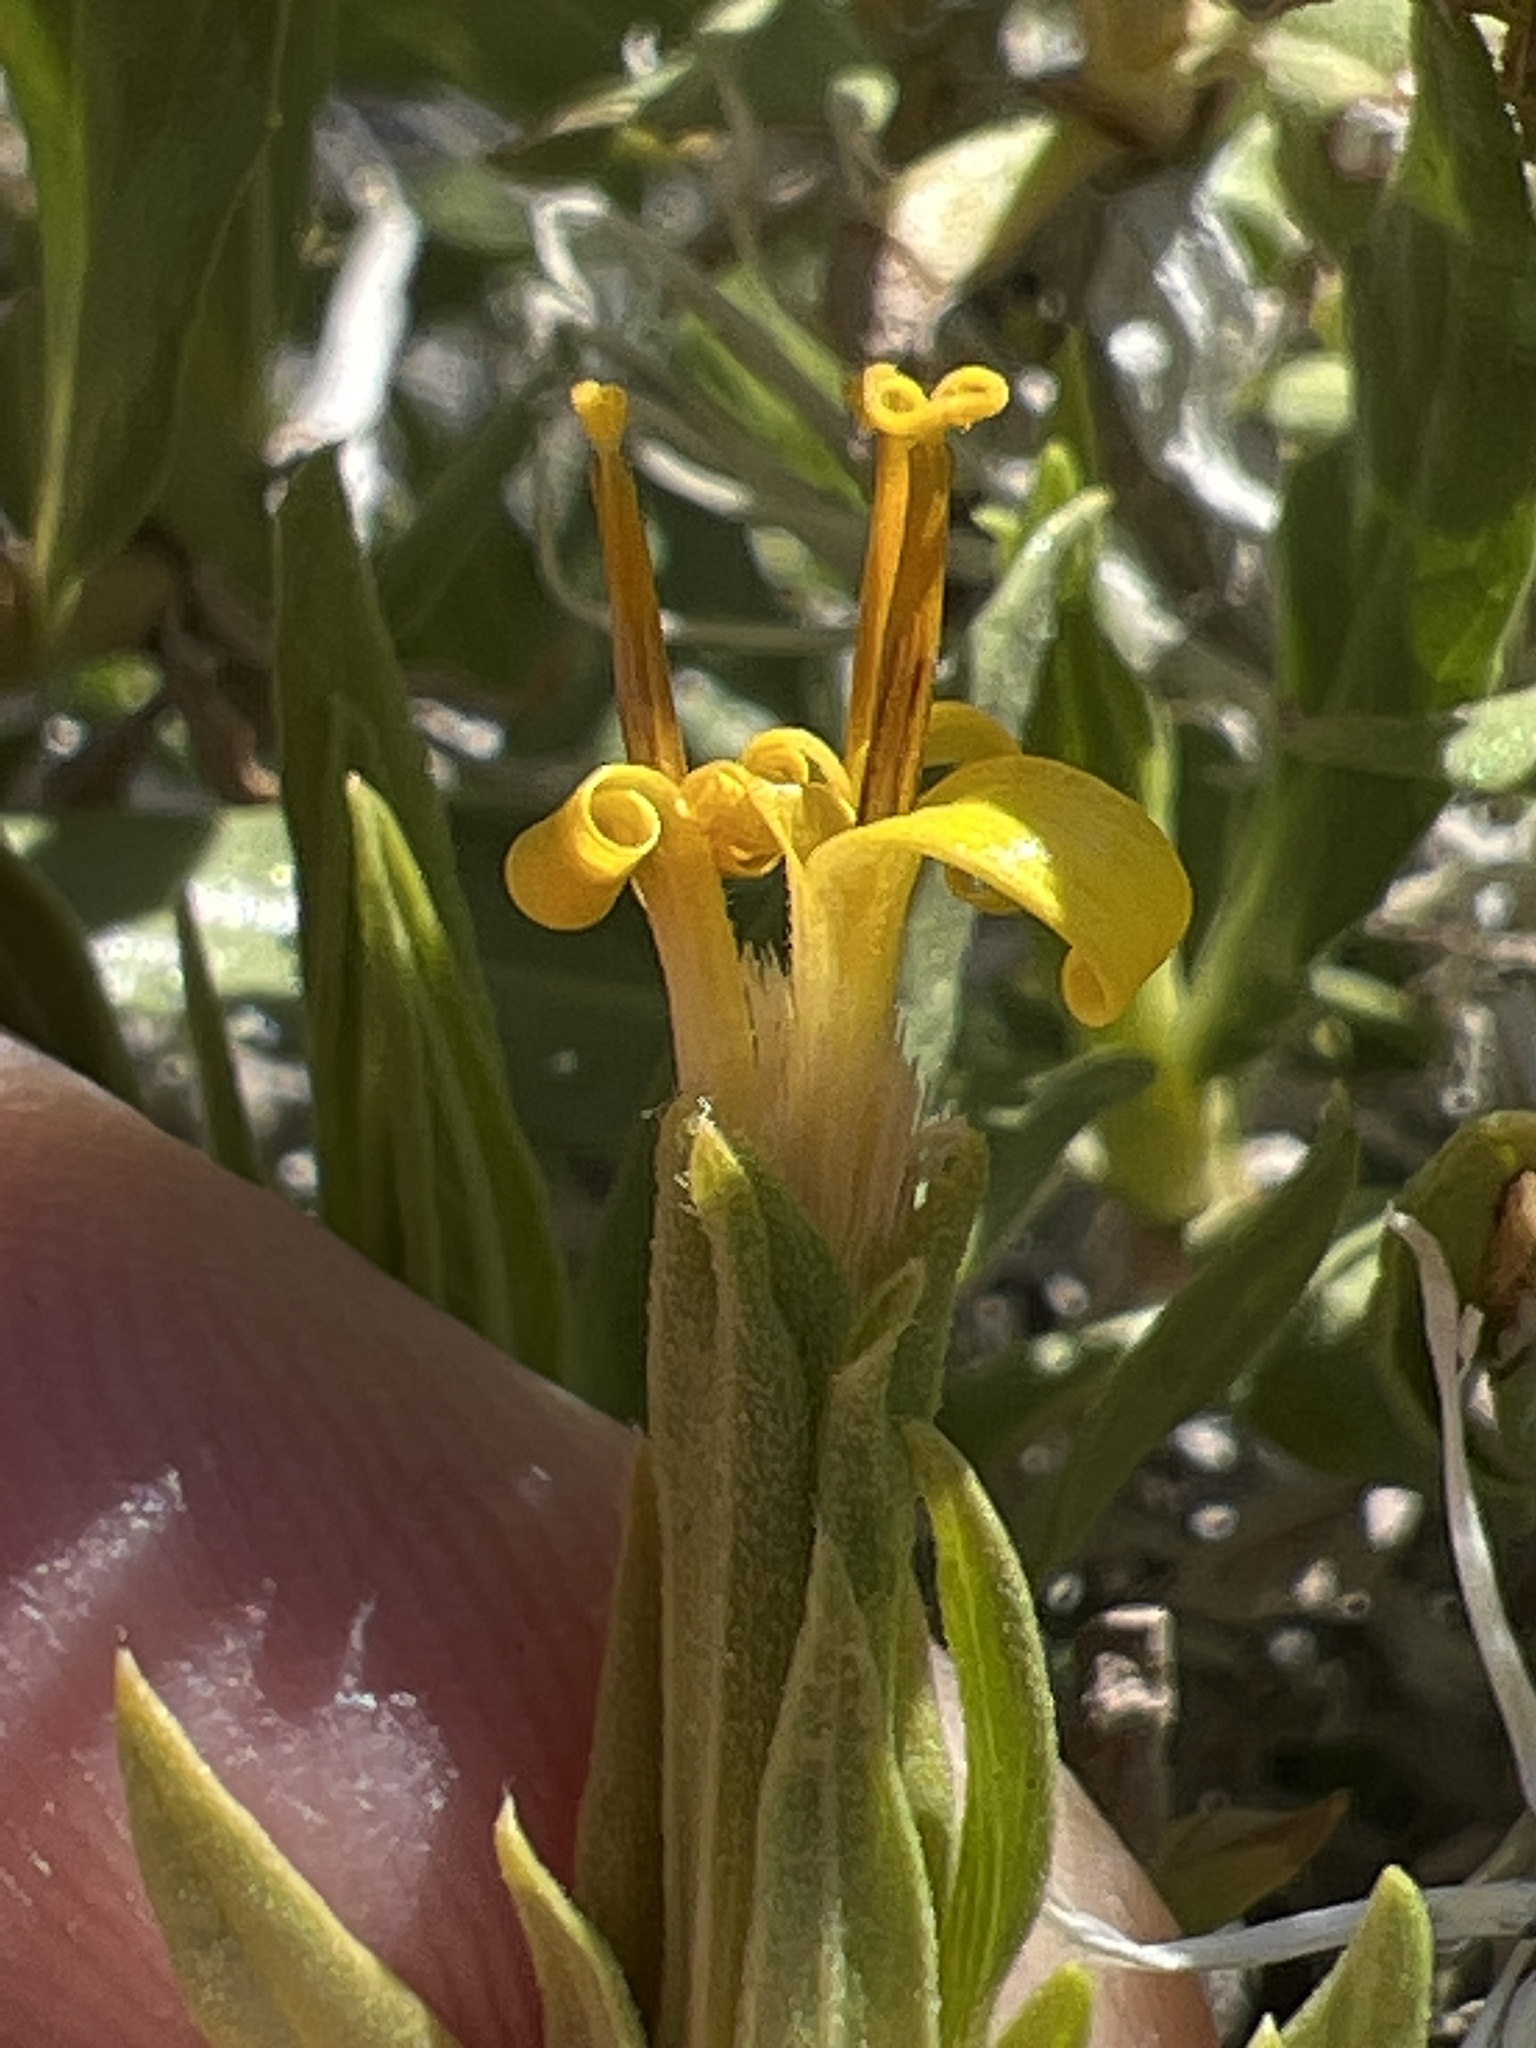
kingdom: Plantae
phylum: Tracheophyta
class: Magnoliopsida
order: Asterales
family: Asteraceae
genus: Trixis
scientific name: Trixis californica
